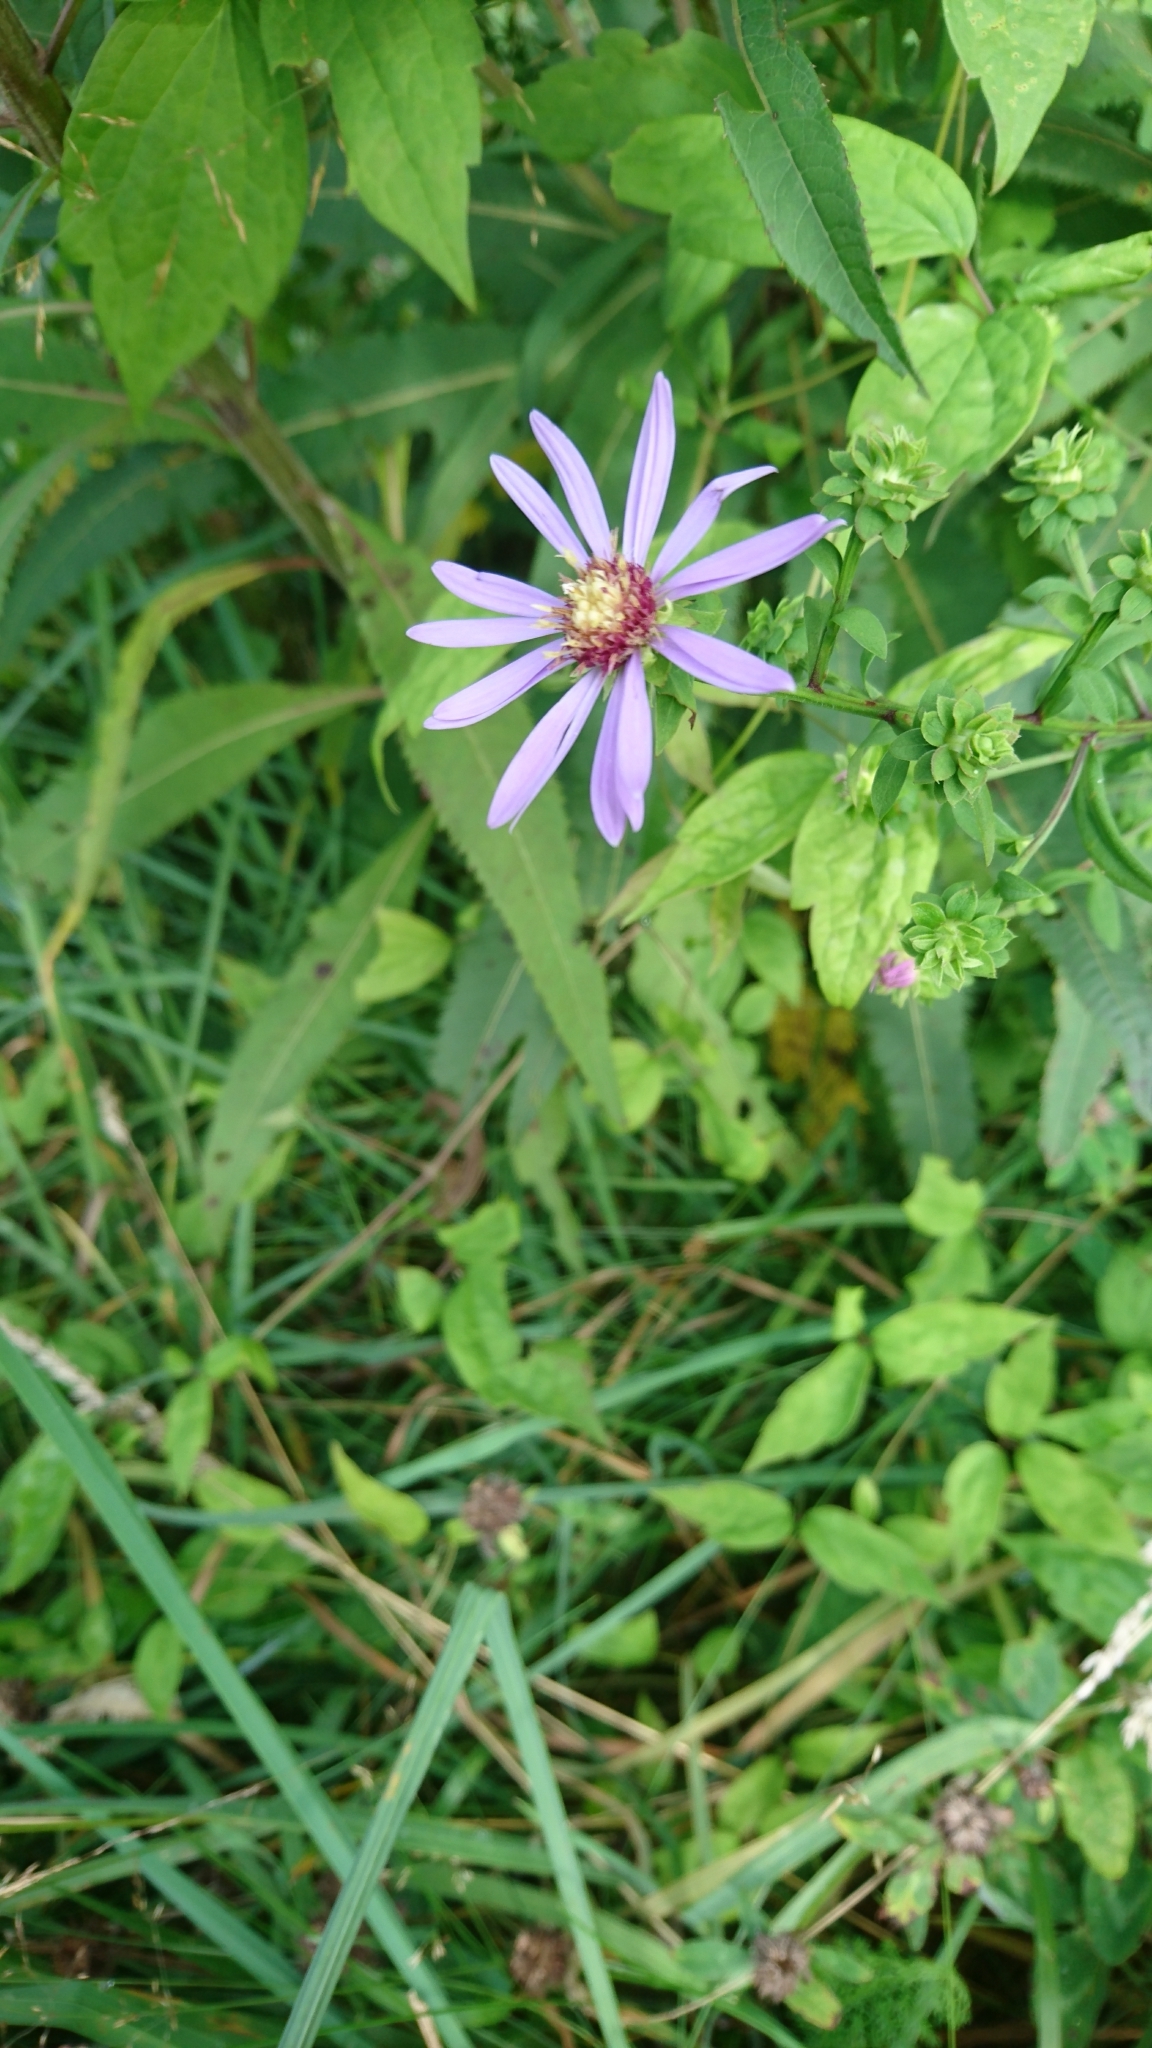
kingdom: Plantae
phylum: Tracheophyta
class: Magnoliopsida
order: Asterales
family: Asteraceae
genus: Symphyotrichum
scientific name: Symphyotrichum retroflexum
